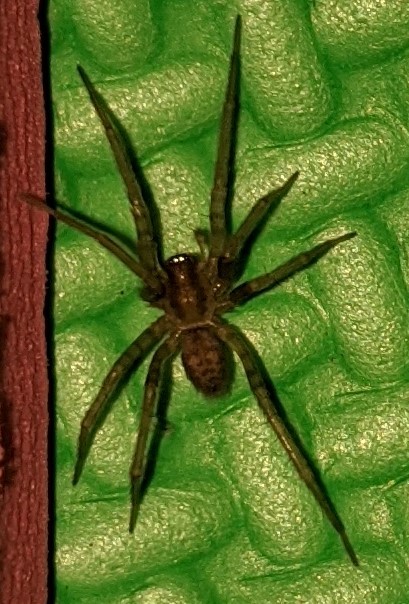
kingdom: Animalia
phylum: Arthropoda
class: Arachnida
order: Araneae
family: Agelenidae
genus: Tegenaria
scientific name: Tegenaria domestica
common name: Barn funnel weaver
